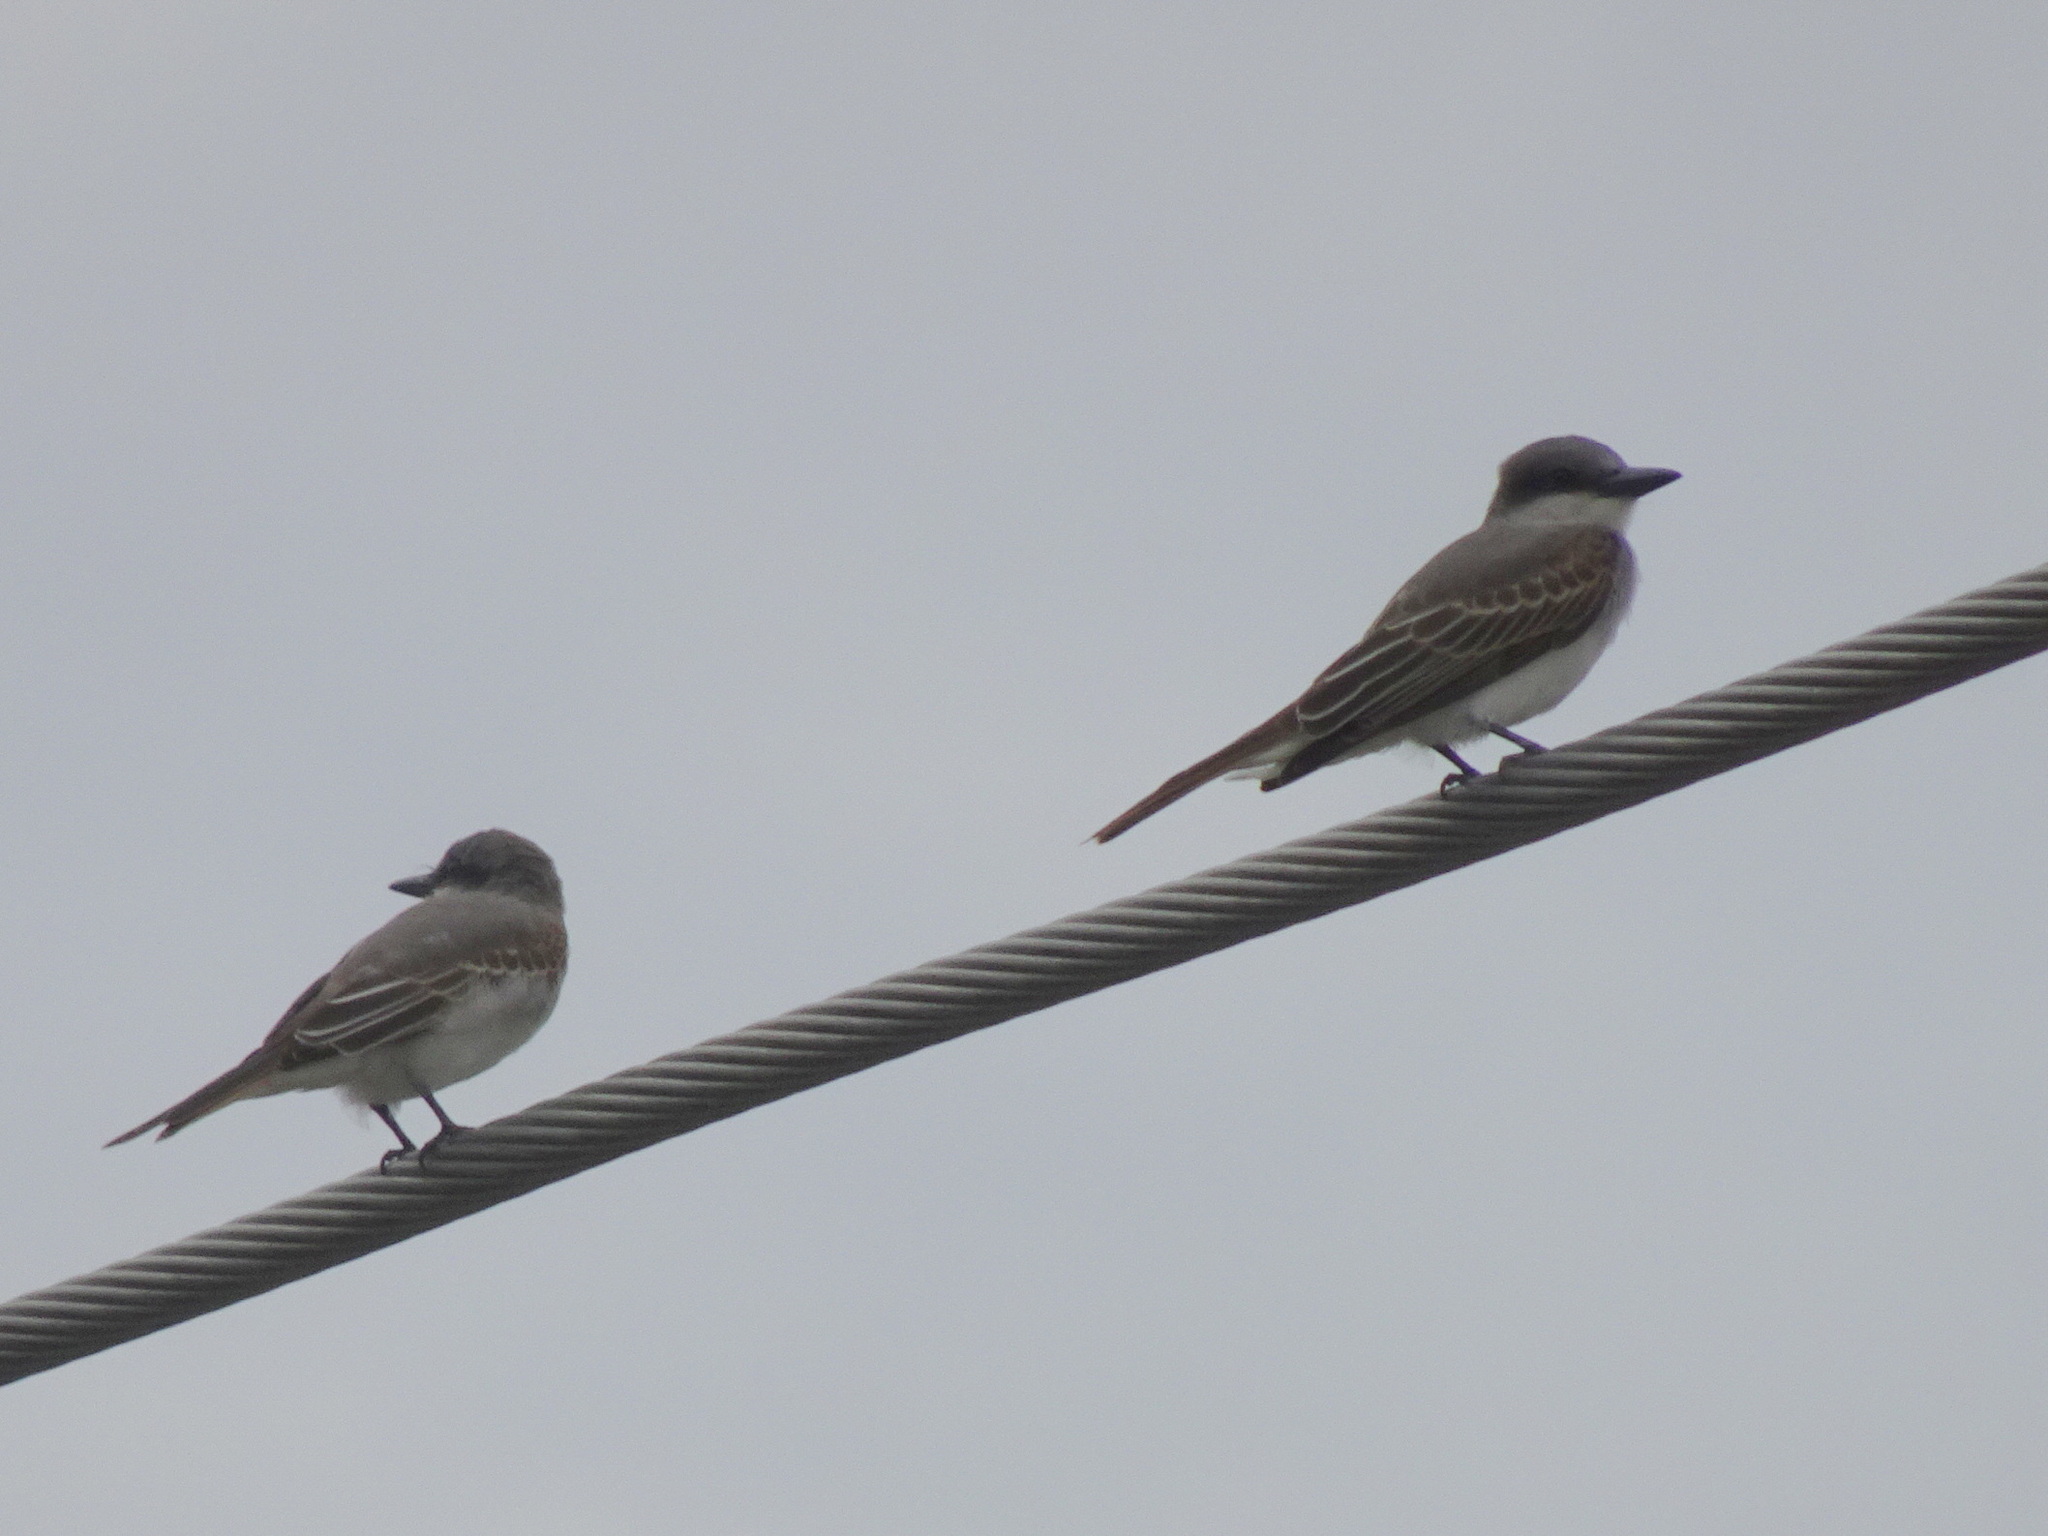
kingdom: Animalia
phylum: Chordata
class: Aves
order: Passeriformes
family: Tyrannidae
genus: Tyrannus
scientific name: Tyrannus dominicensis
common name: Gray kingbird
